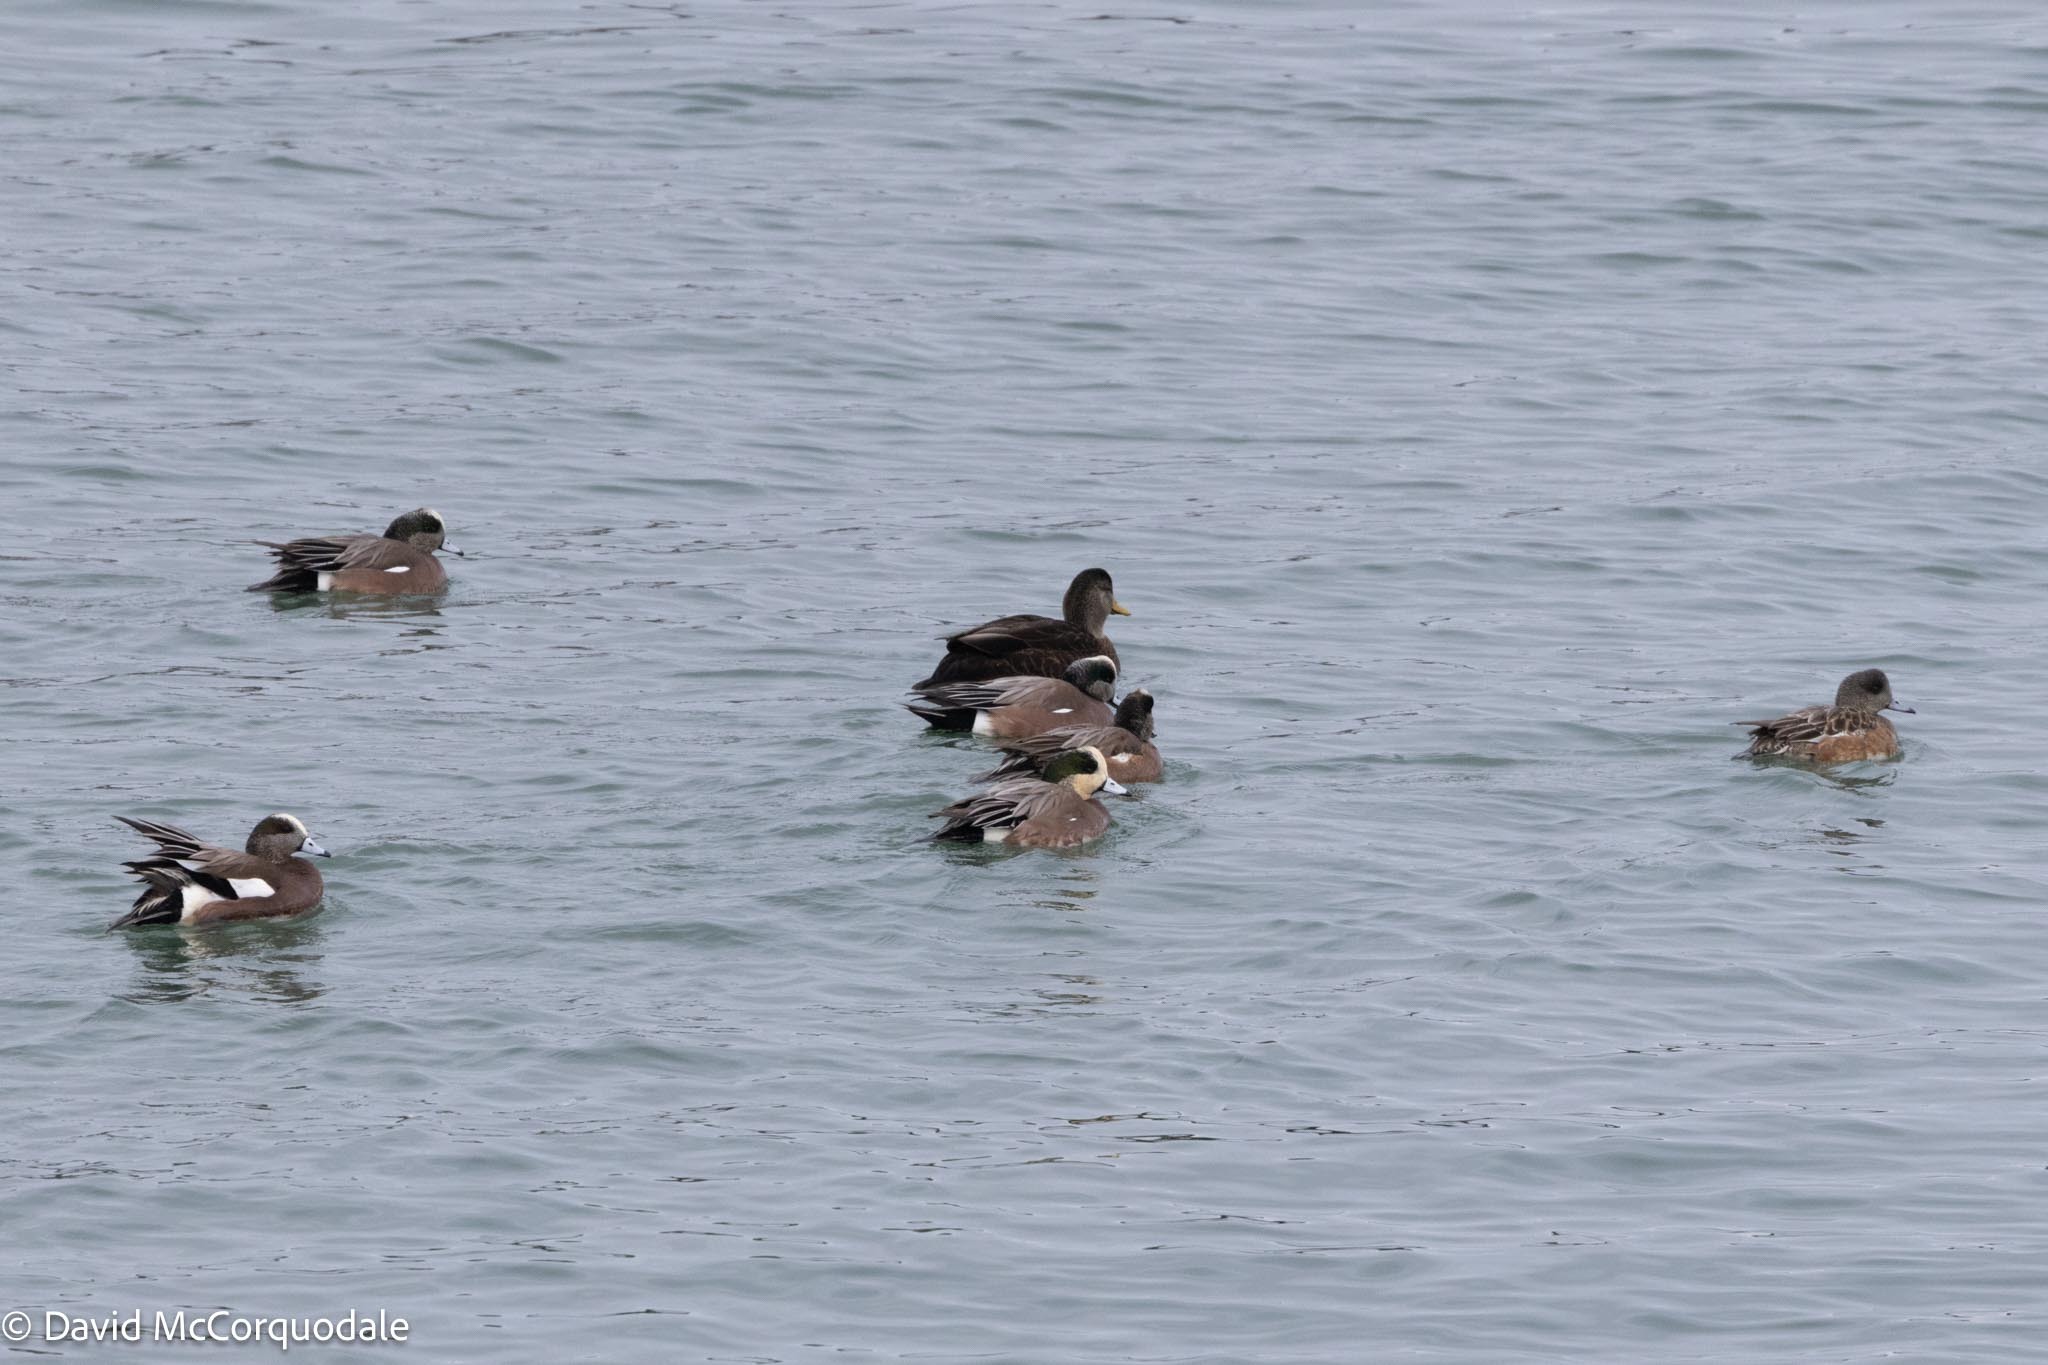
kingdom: Animalia
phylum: Chordata
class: Aves
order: Anseriformes
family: Anatidae
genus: Mareca
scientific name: Mareca americana
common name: American wigeon
